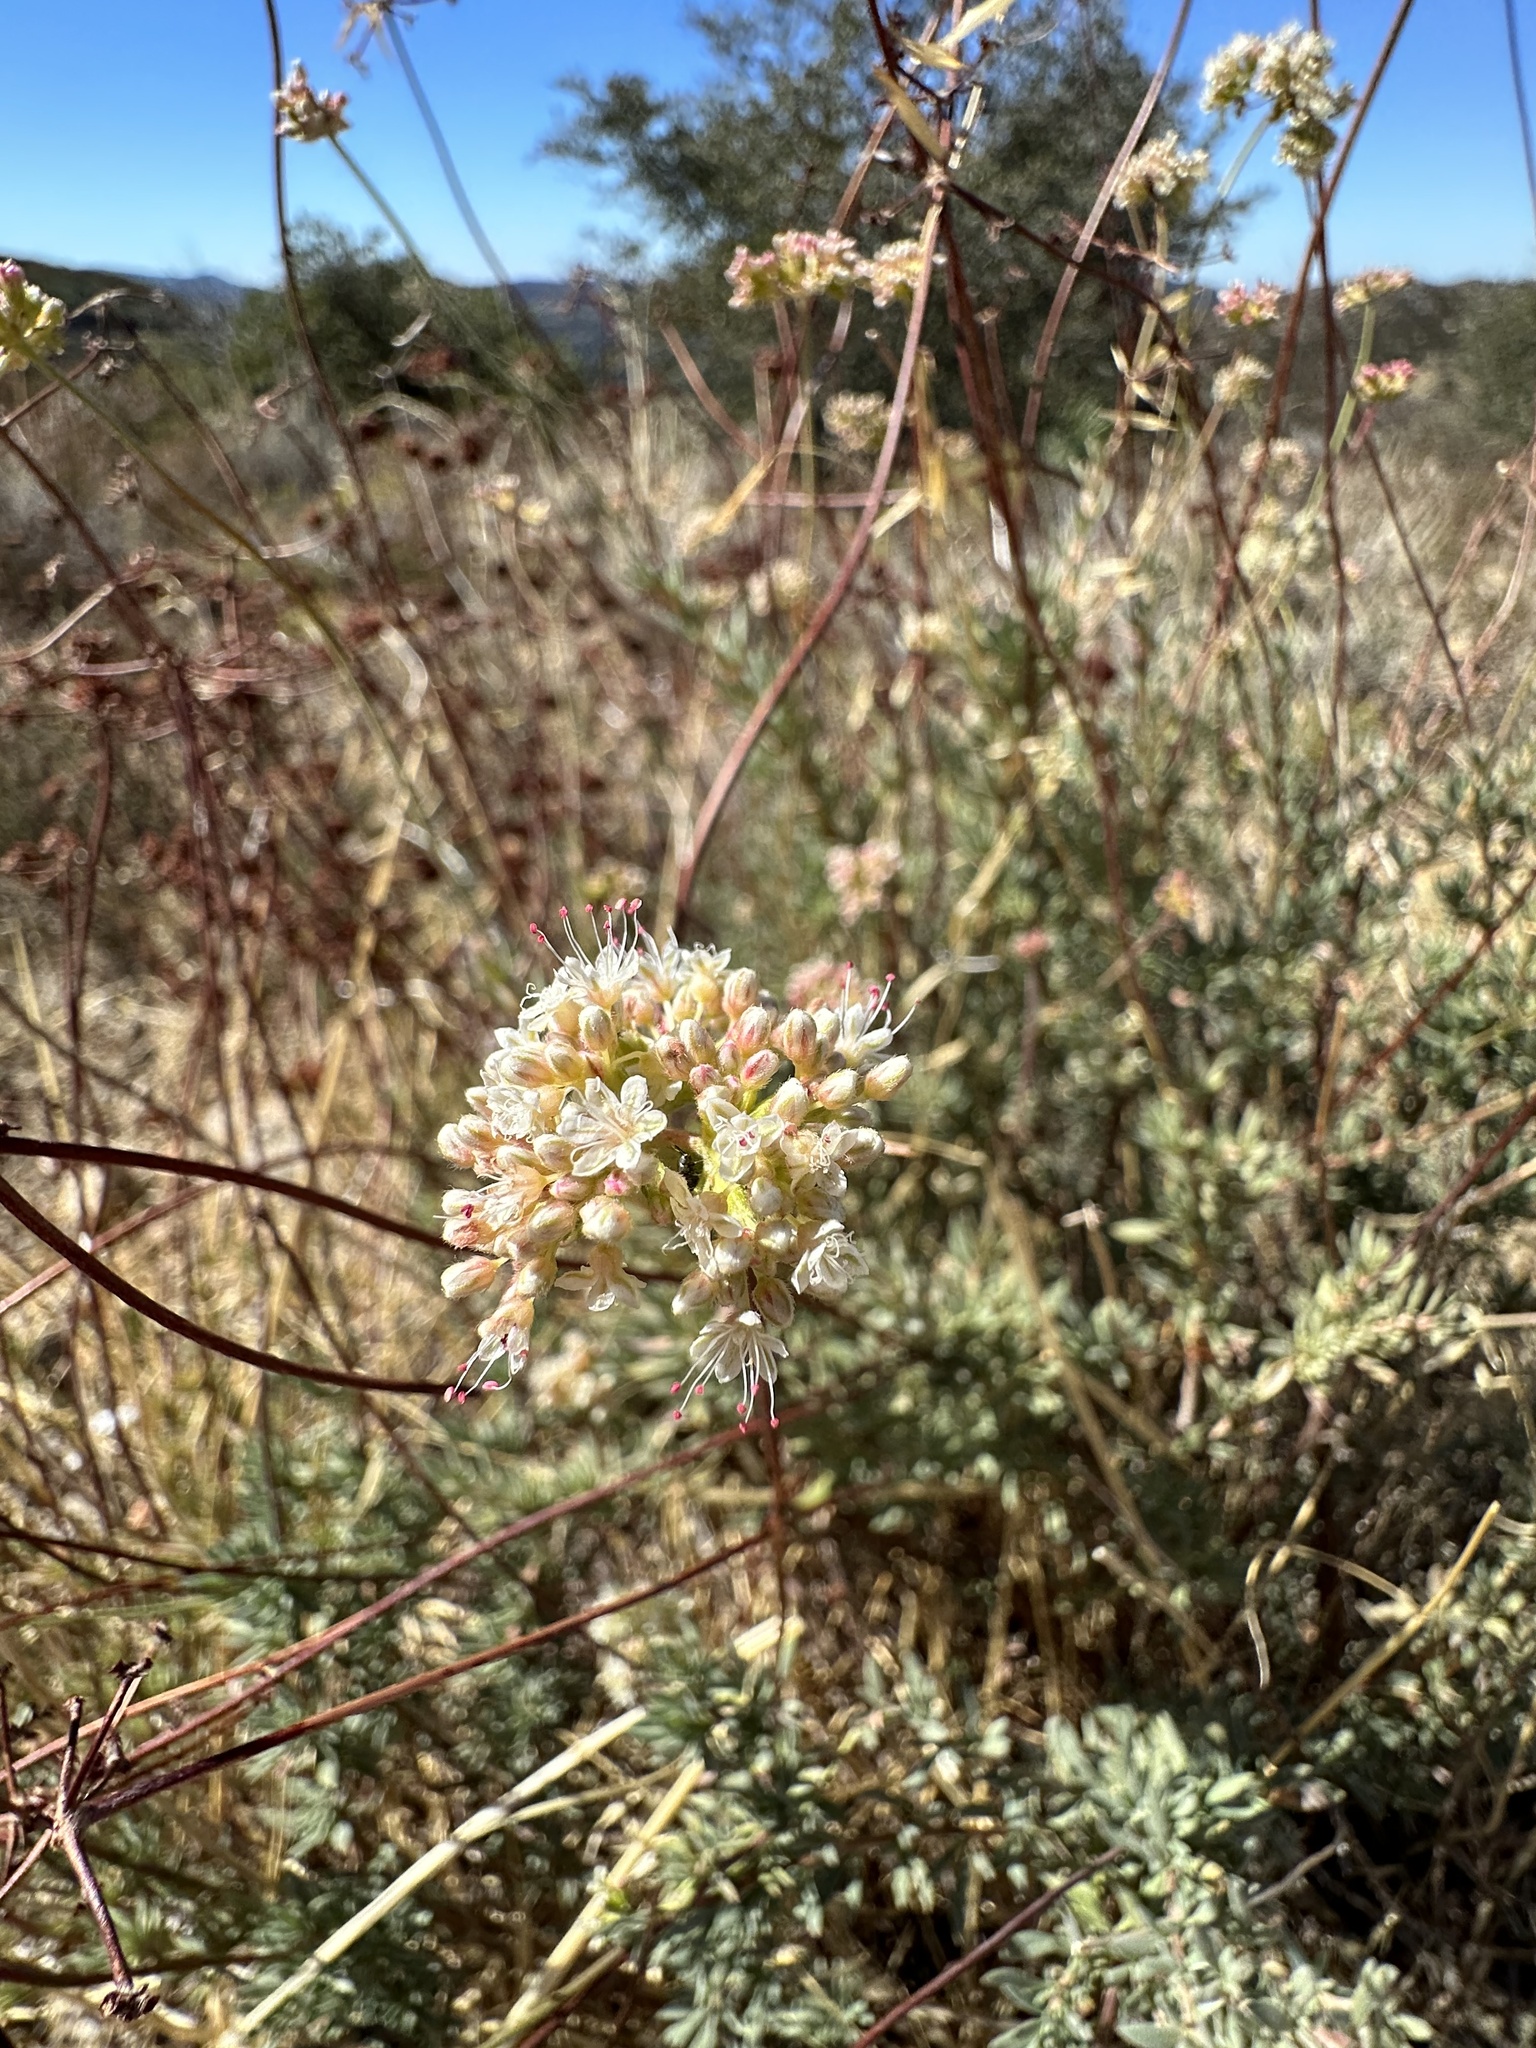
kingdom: Plantae
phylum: Tracheophyta
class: Magnoliopsida
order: Caryophyllales
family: Polygonaceae
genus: Eriogonum
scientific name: Eriogonum fasciculatum
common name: California wild buckwheat
